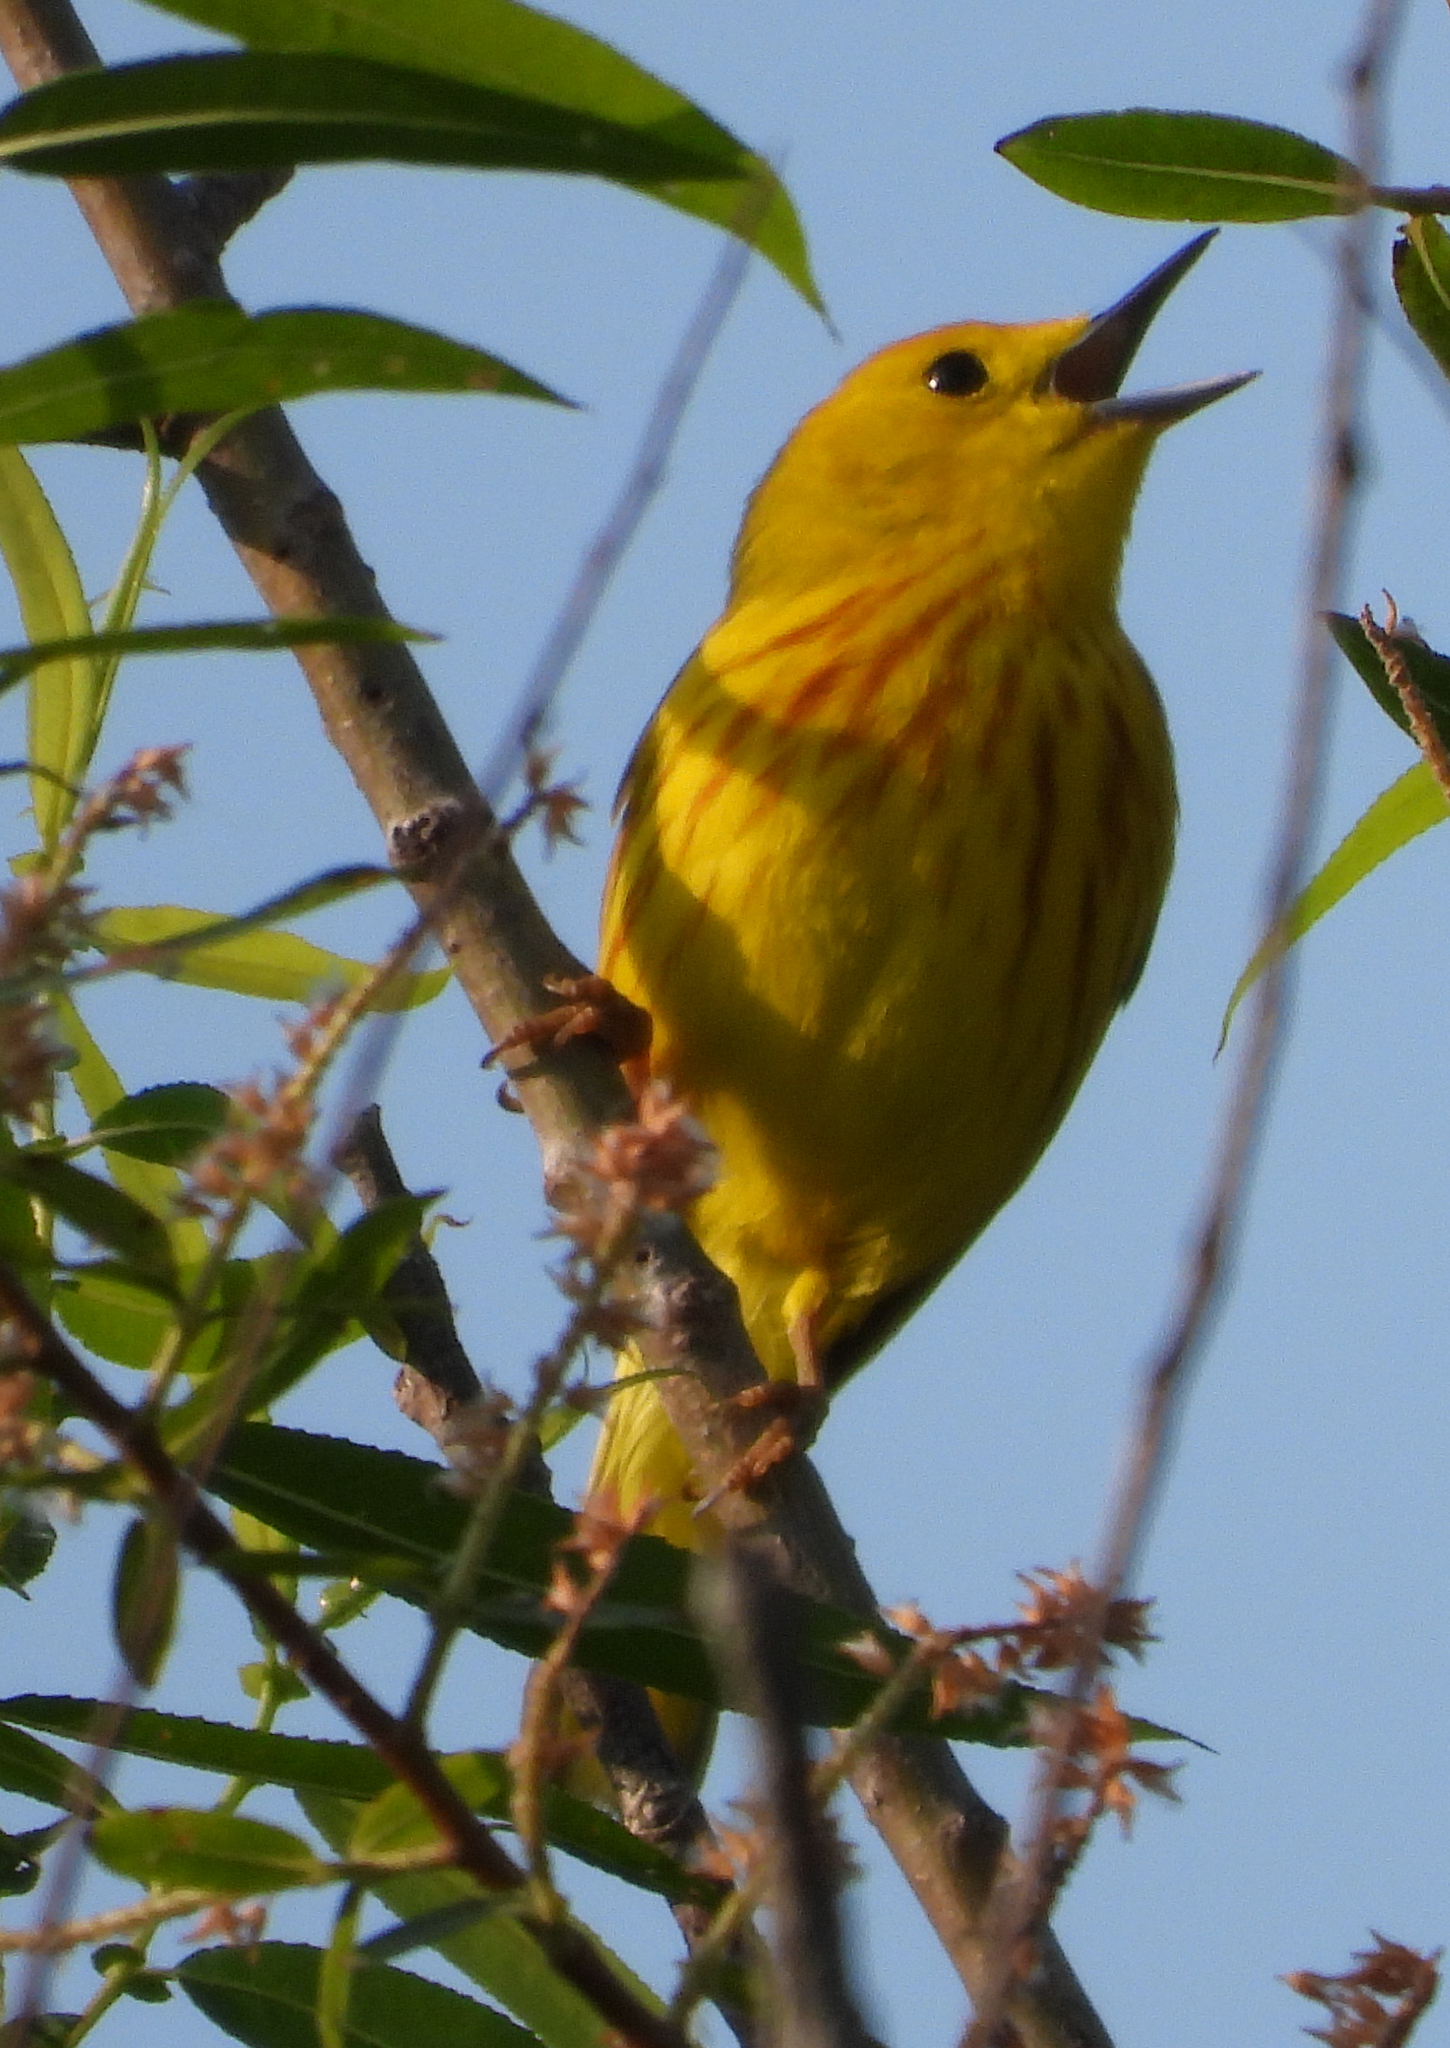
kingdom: Animalia
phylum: Chordata
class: Aves
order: Passeriformes
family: Parulidae
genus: Setophaga
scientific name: Setophaga petechia
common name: Yellow warbler
